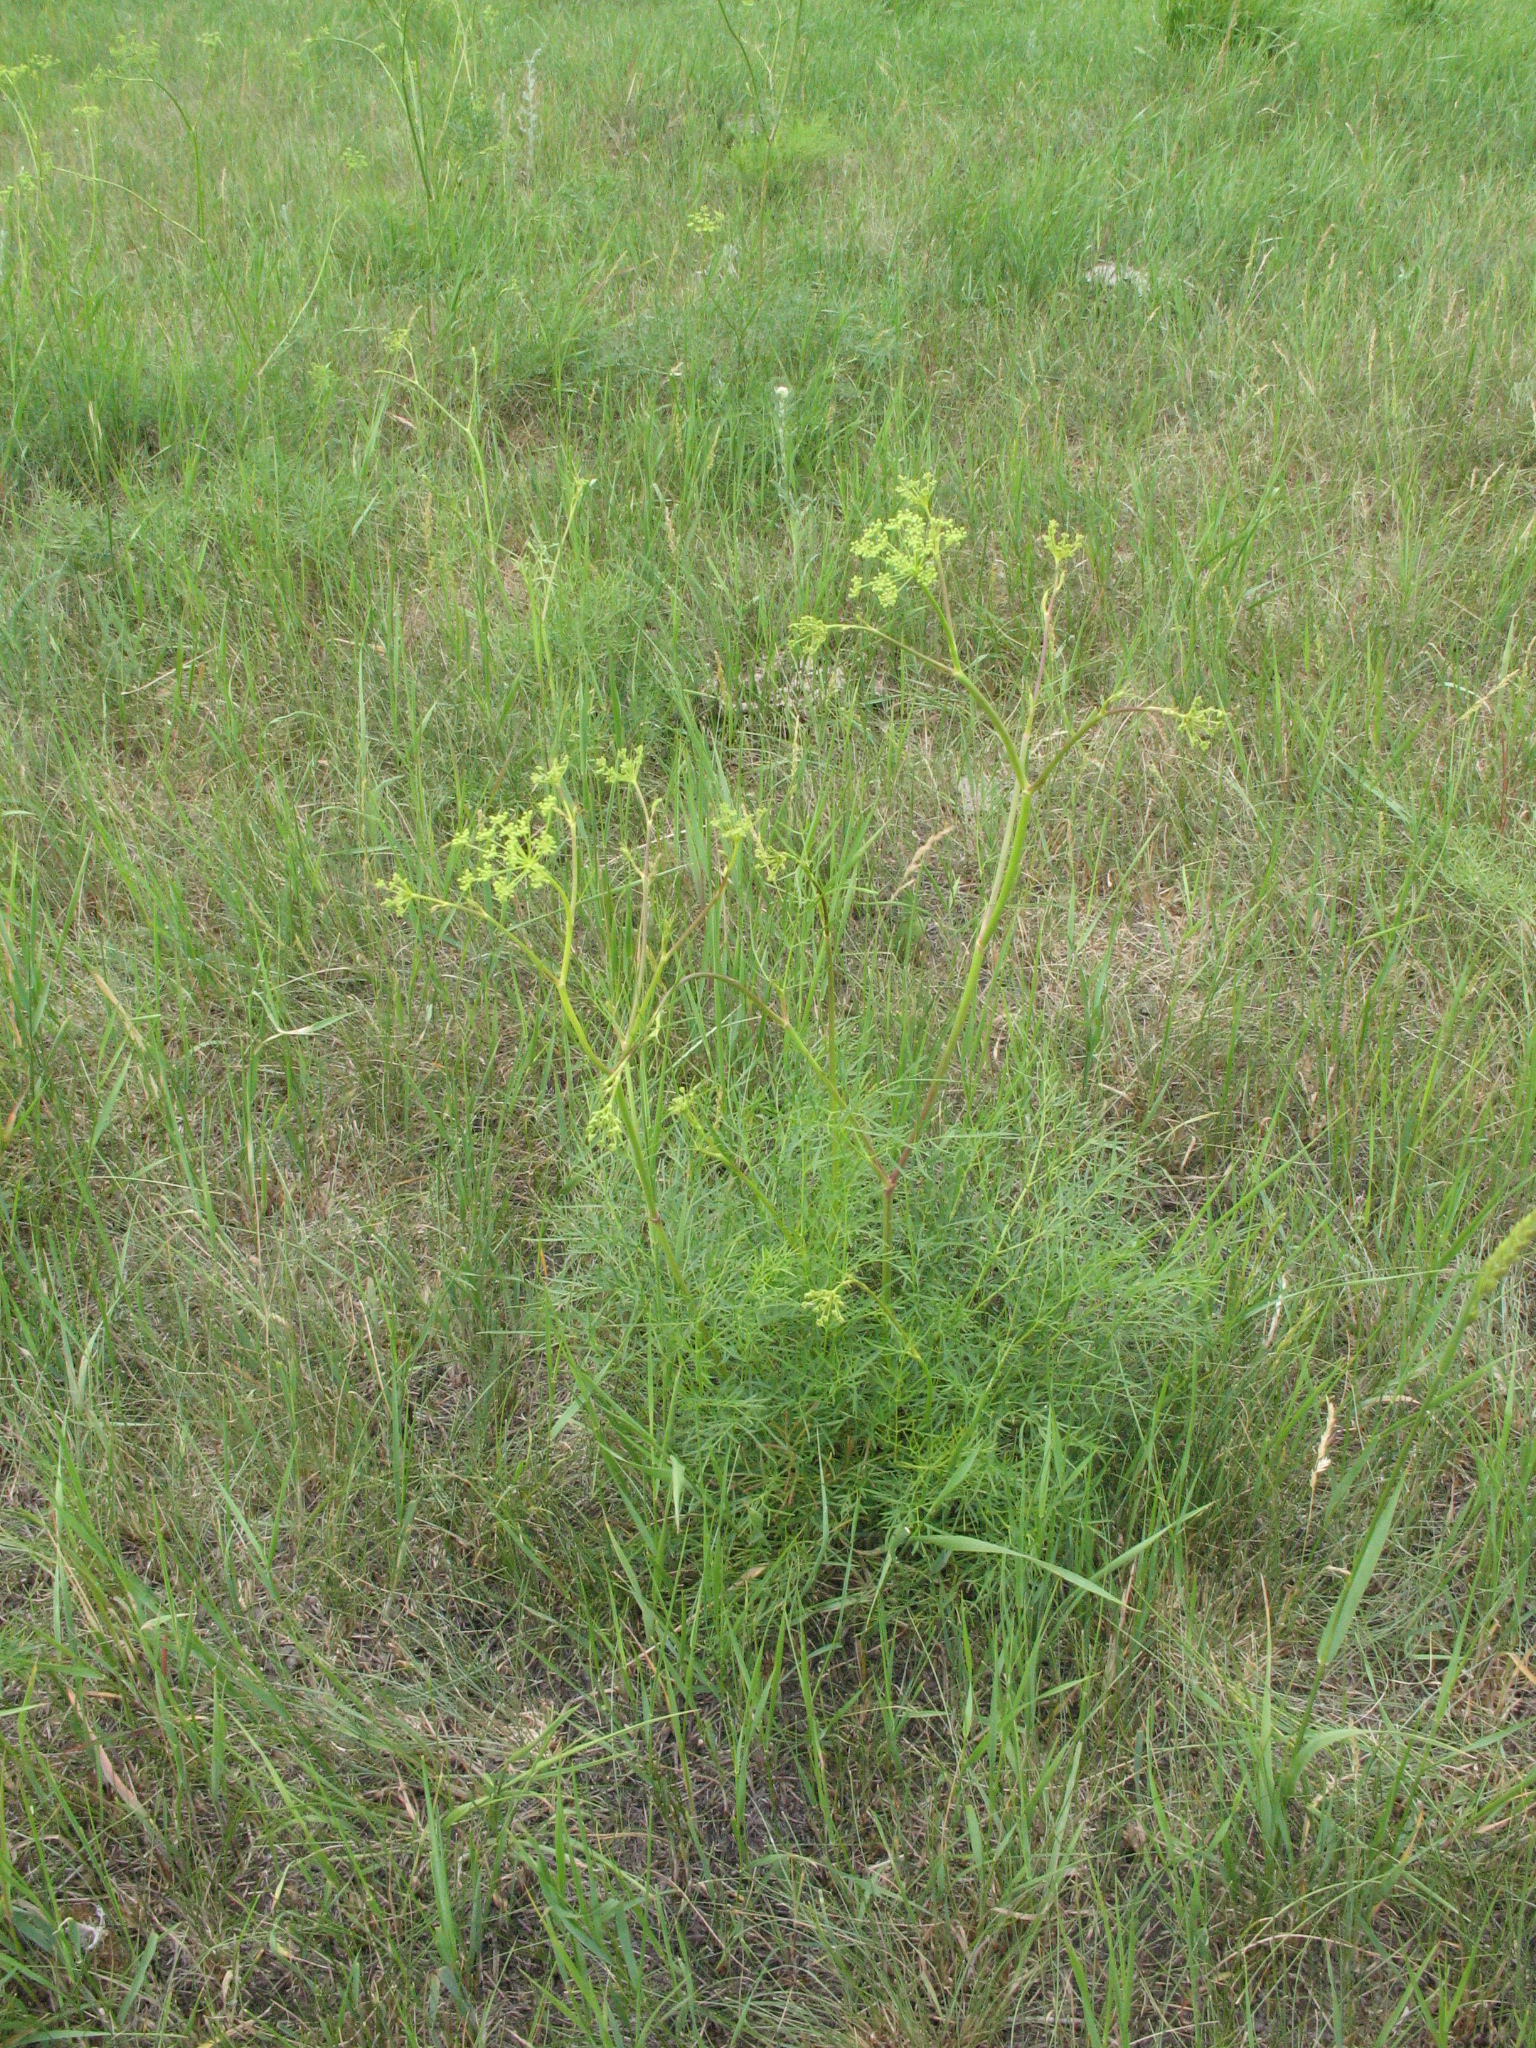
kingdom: Plantae
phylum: Tracheophyta
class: Magnoliopsida
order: Apiales
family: Apiaceae
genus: Silaum
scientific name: Silaum silaus
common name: Pepper-saxifrage
